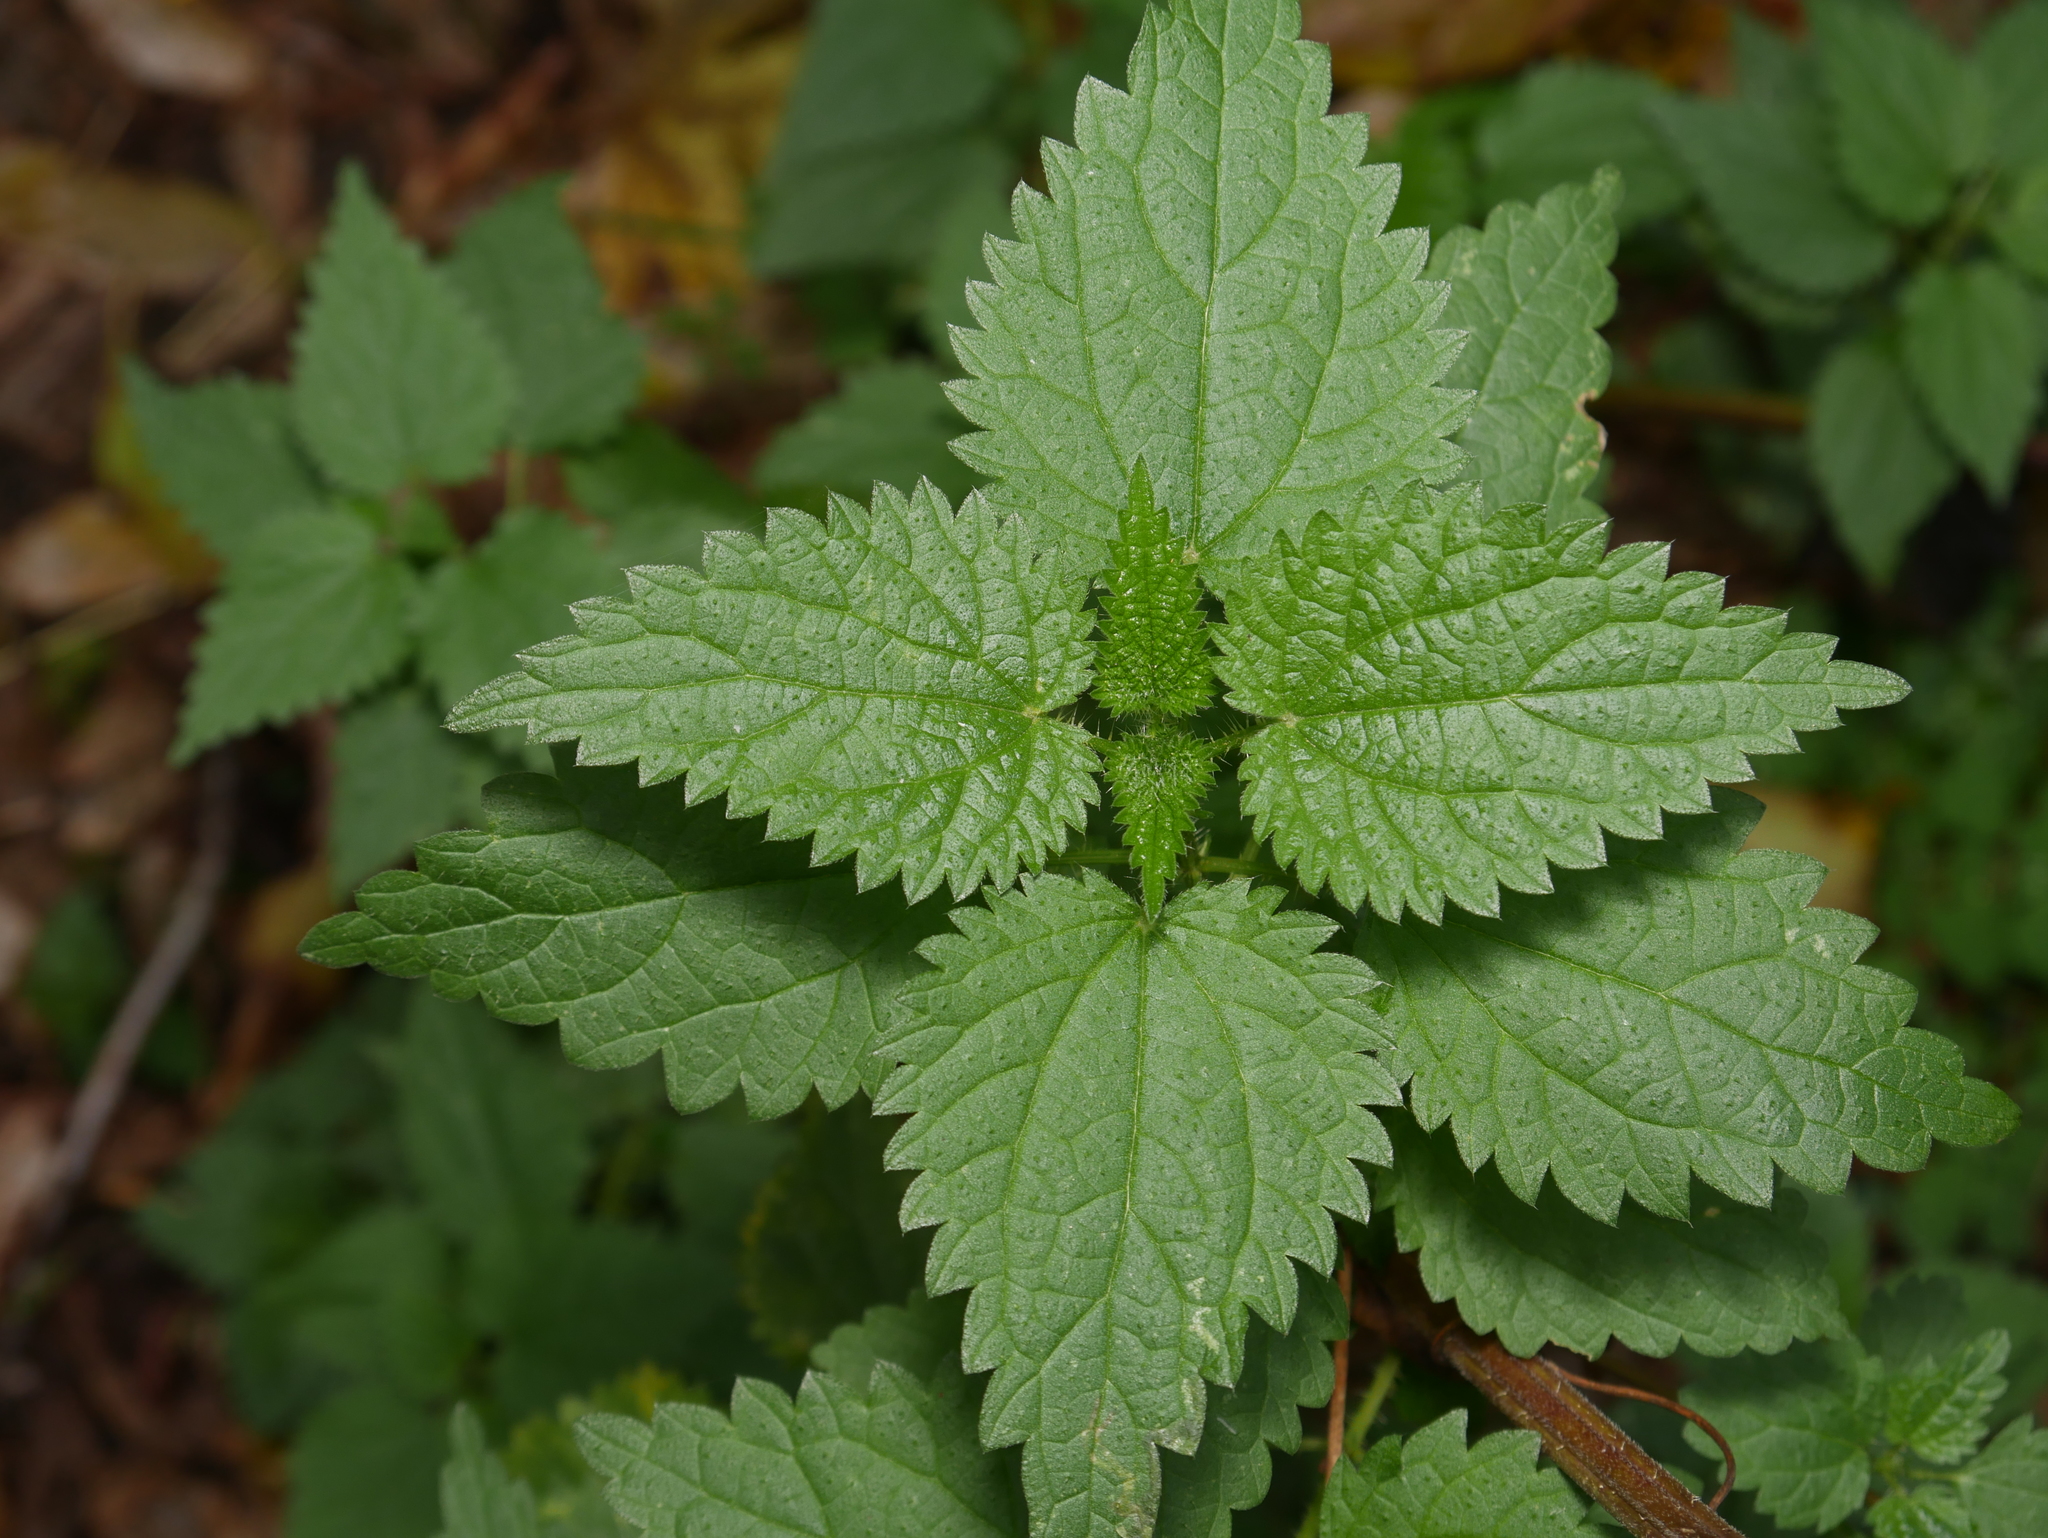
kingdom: Plantae
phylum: Tracheophyta
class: Magnoliopsida
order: Rosales
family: Urticaceae
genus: Urtica
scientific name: Urtica dioica
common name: Common nettle
